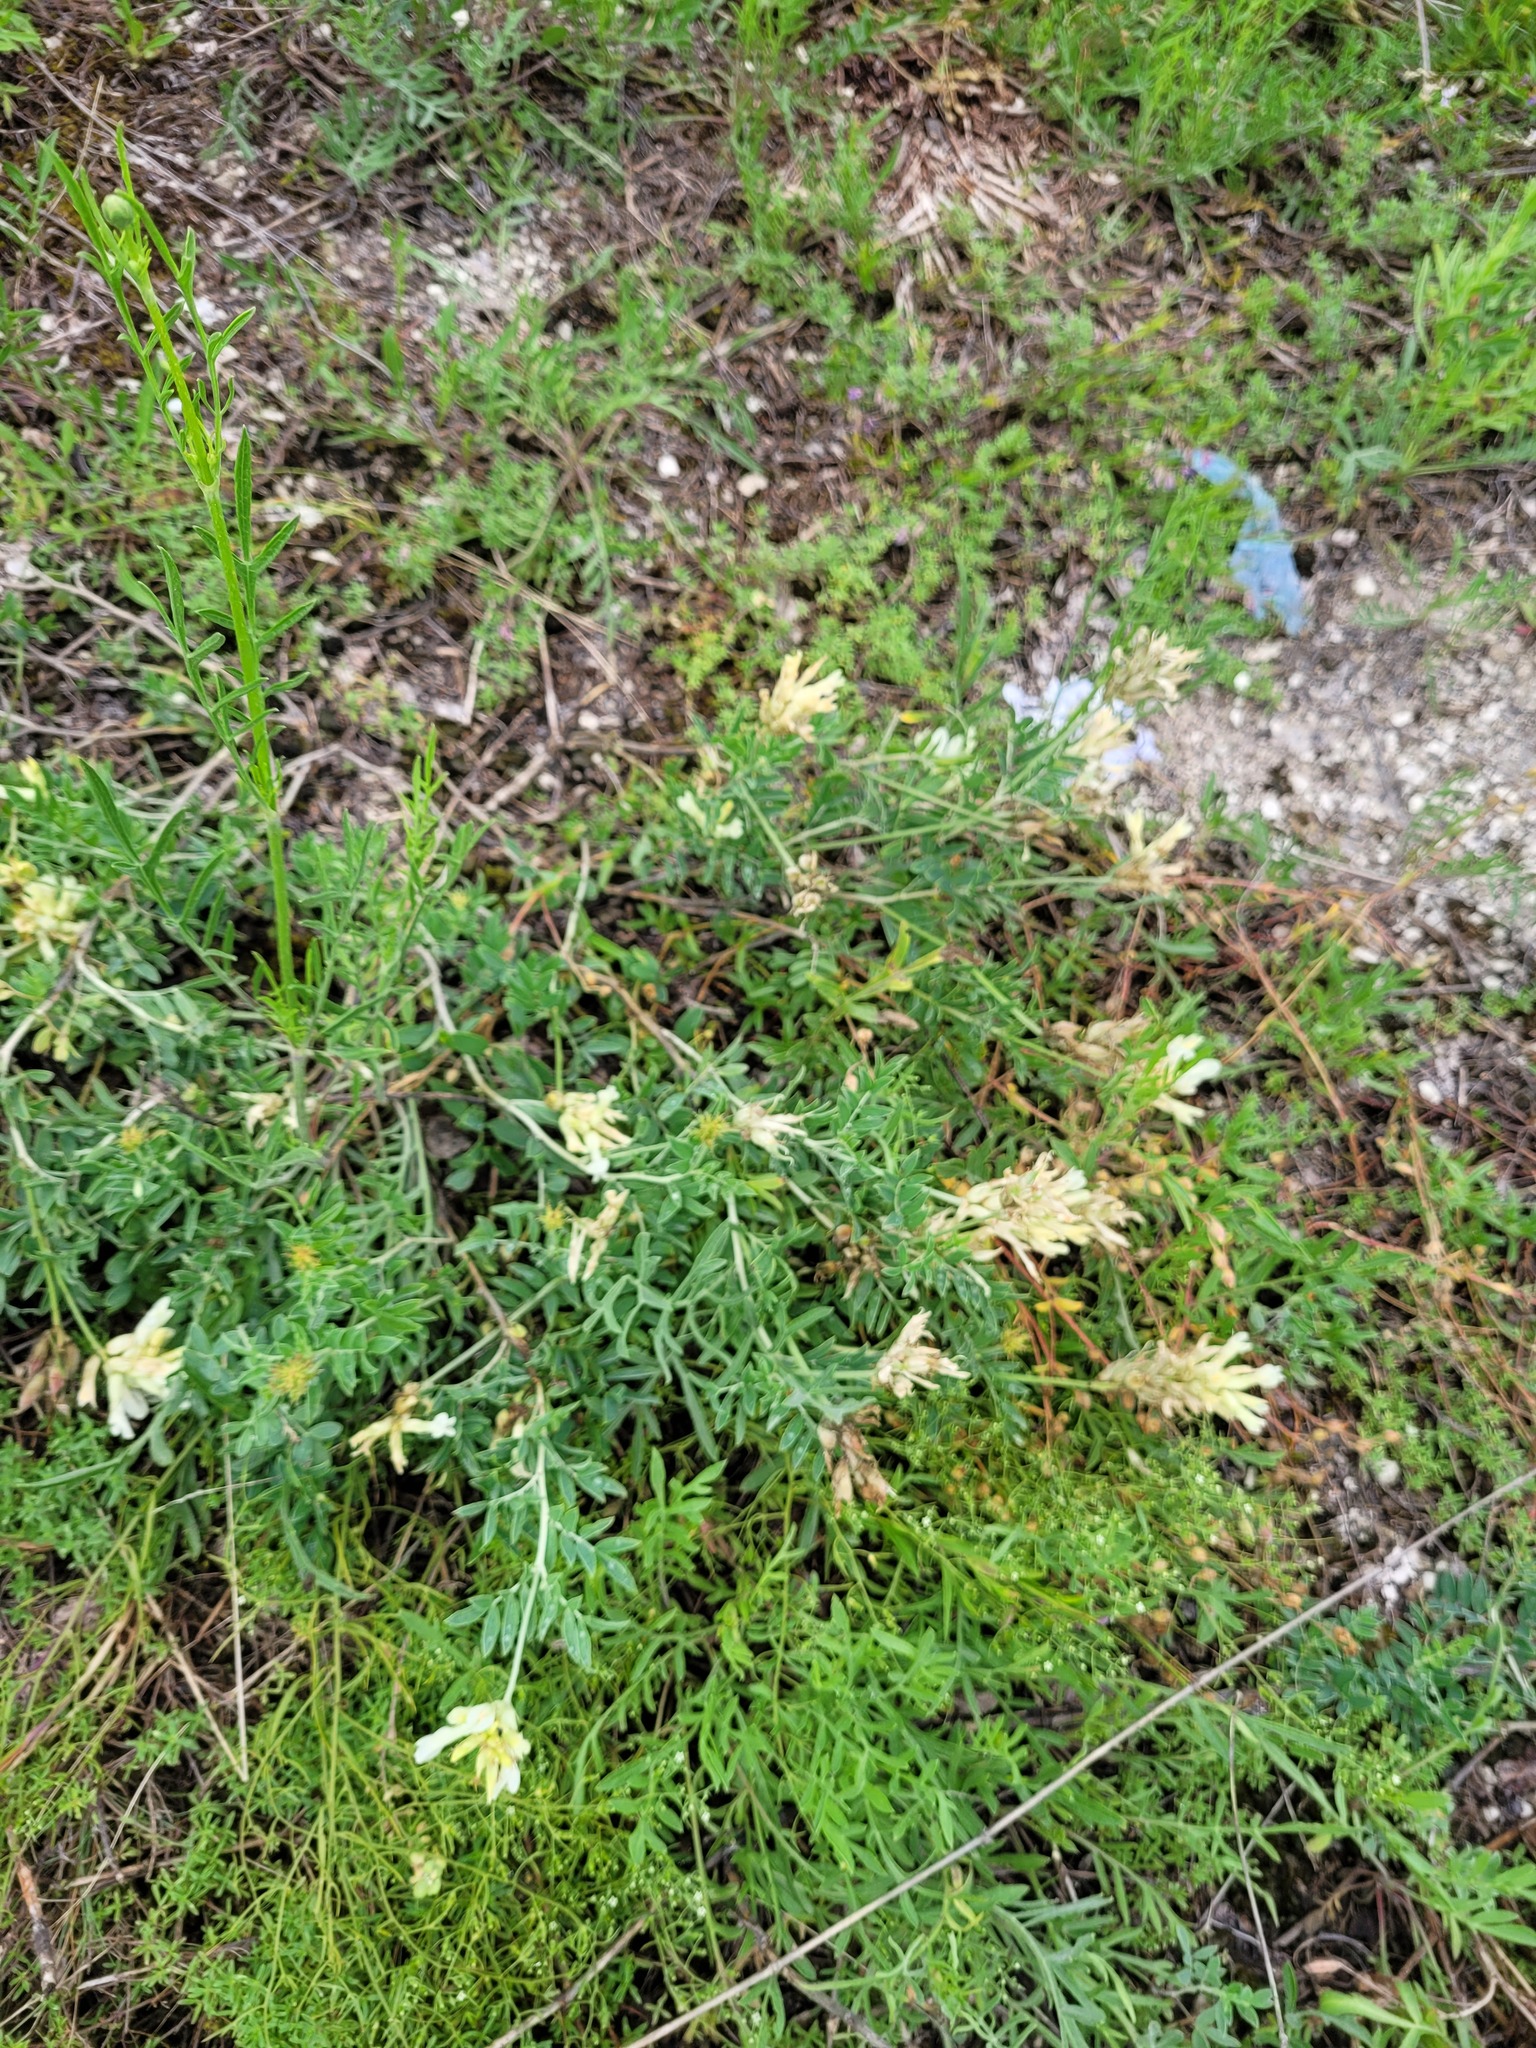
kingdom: Plantae
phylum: Tracheophyta
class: Magnoliopsida
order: Fabales
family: Fabaceae
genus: Astragalus
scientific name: Astragalus albicaulis
